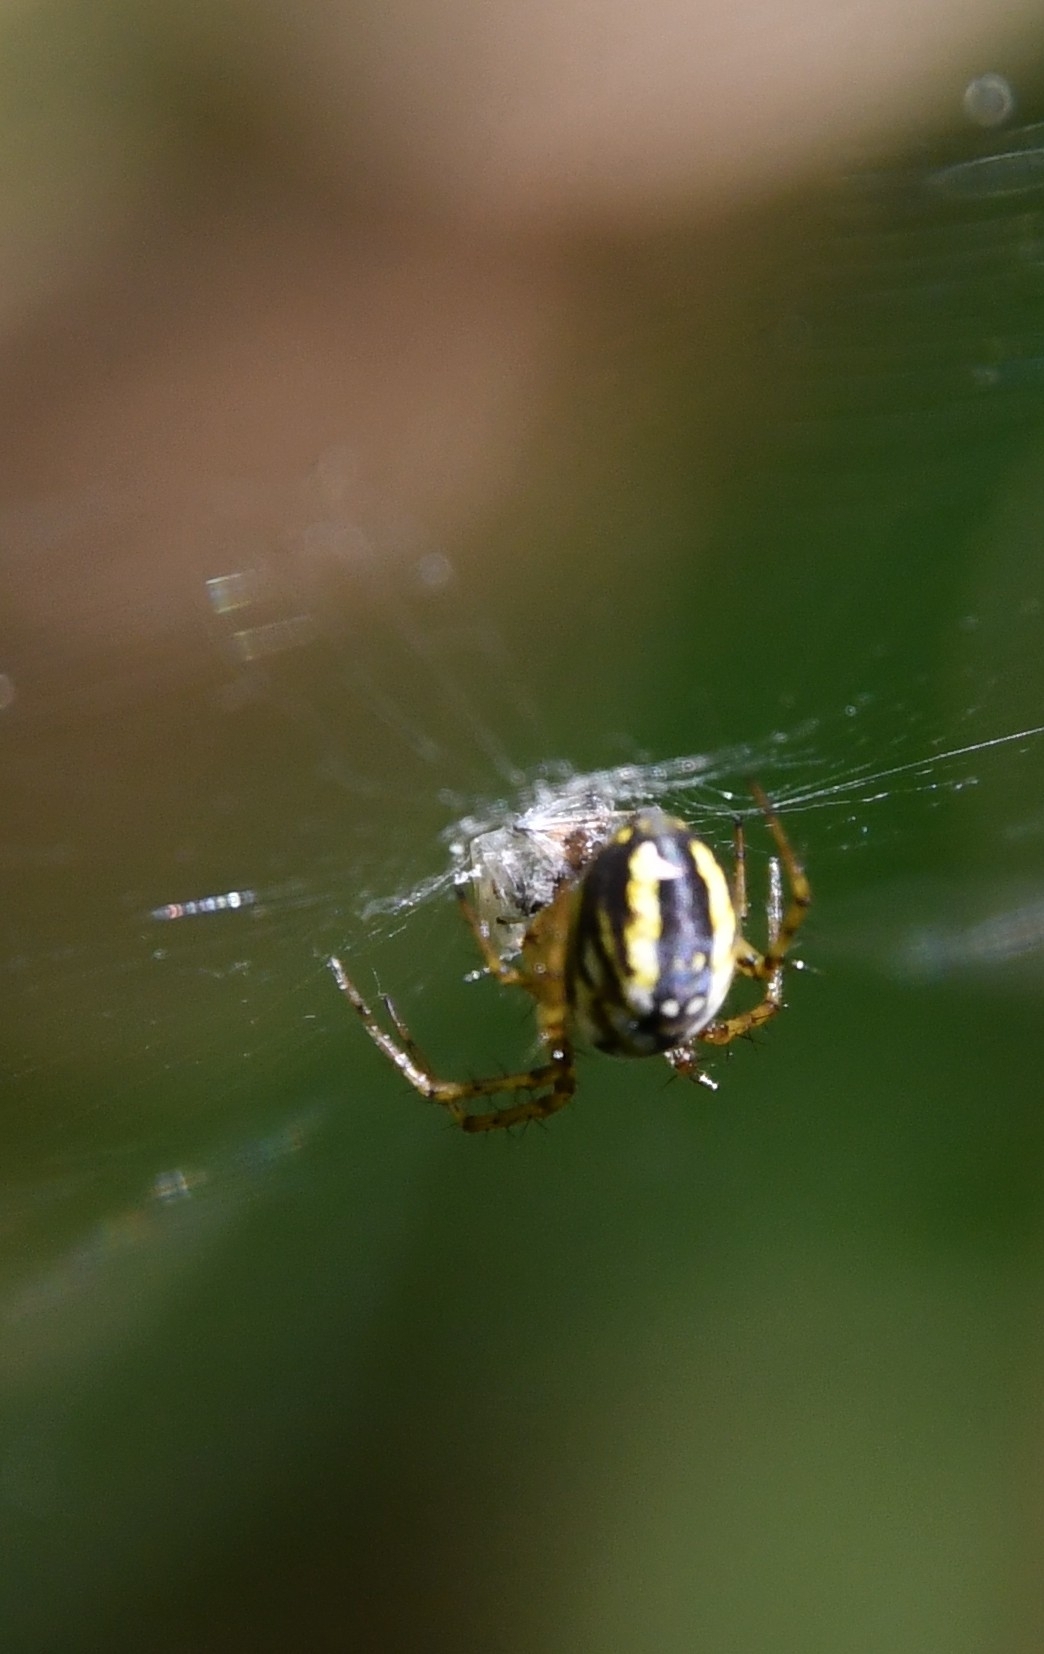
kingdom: Animalia
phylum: Arthropoda
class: Arachnida
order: Araneae
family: Araneidae
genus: Mangora
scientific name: Mangora acalypha
